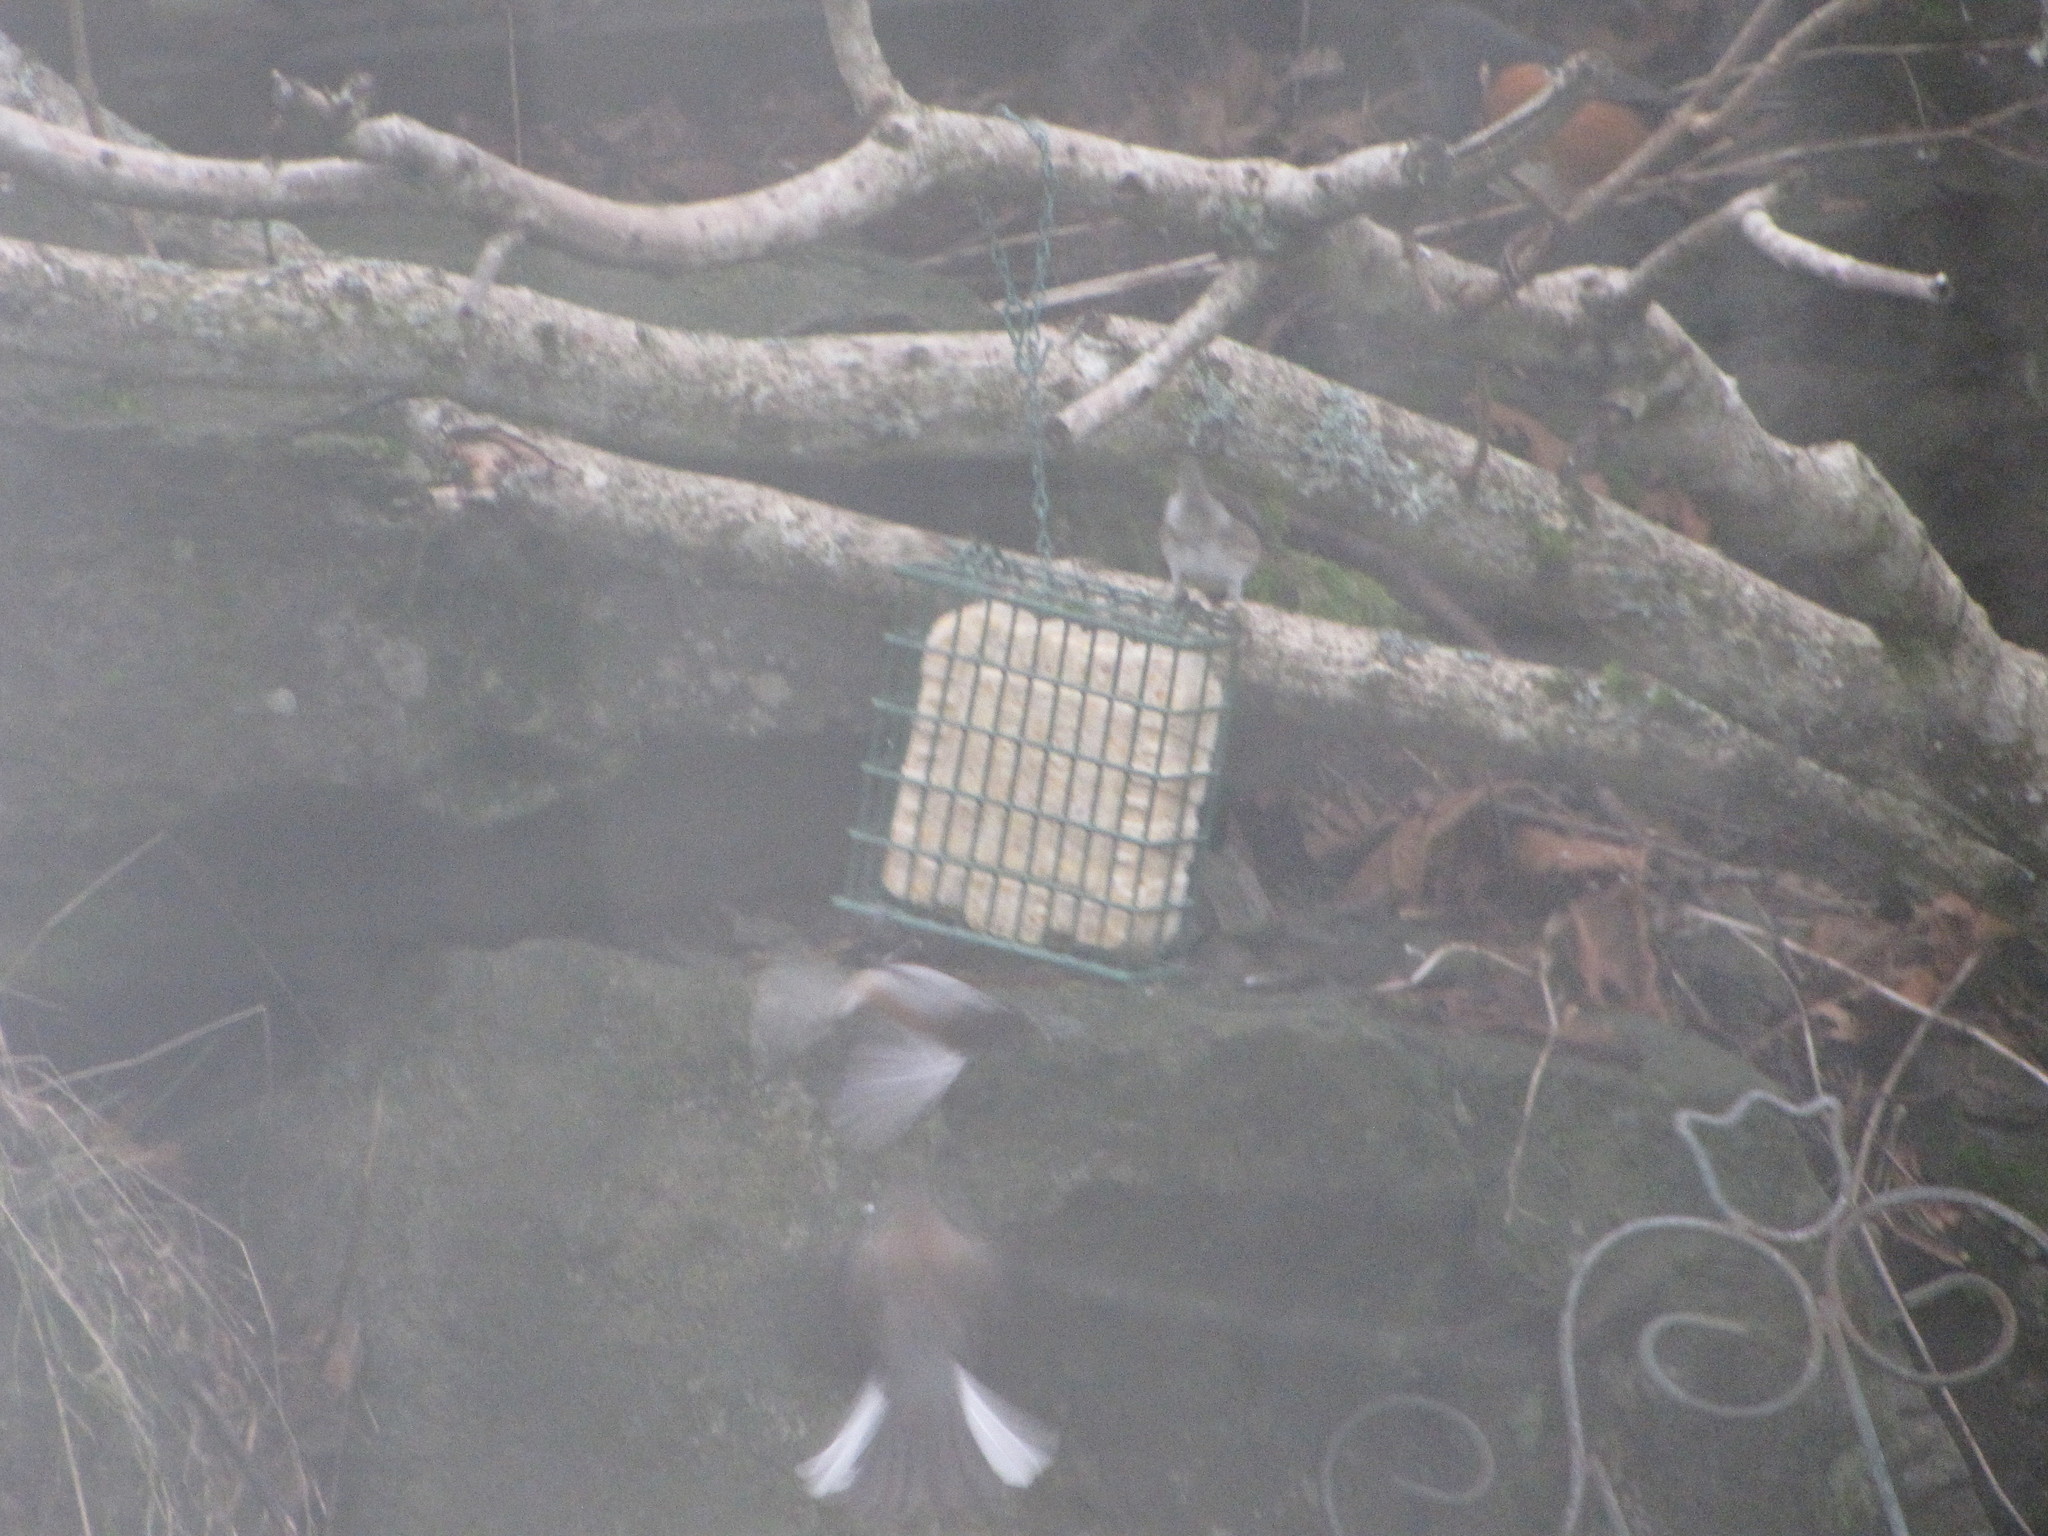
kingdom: Animalia
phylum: Chordata
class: Aves
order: Passeriformes
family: Passerellidae
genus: Junco
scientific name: Junco hyemalis
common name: Dark-eyed junco
